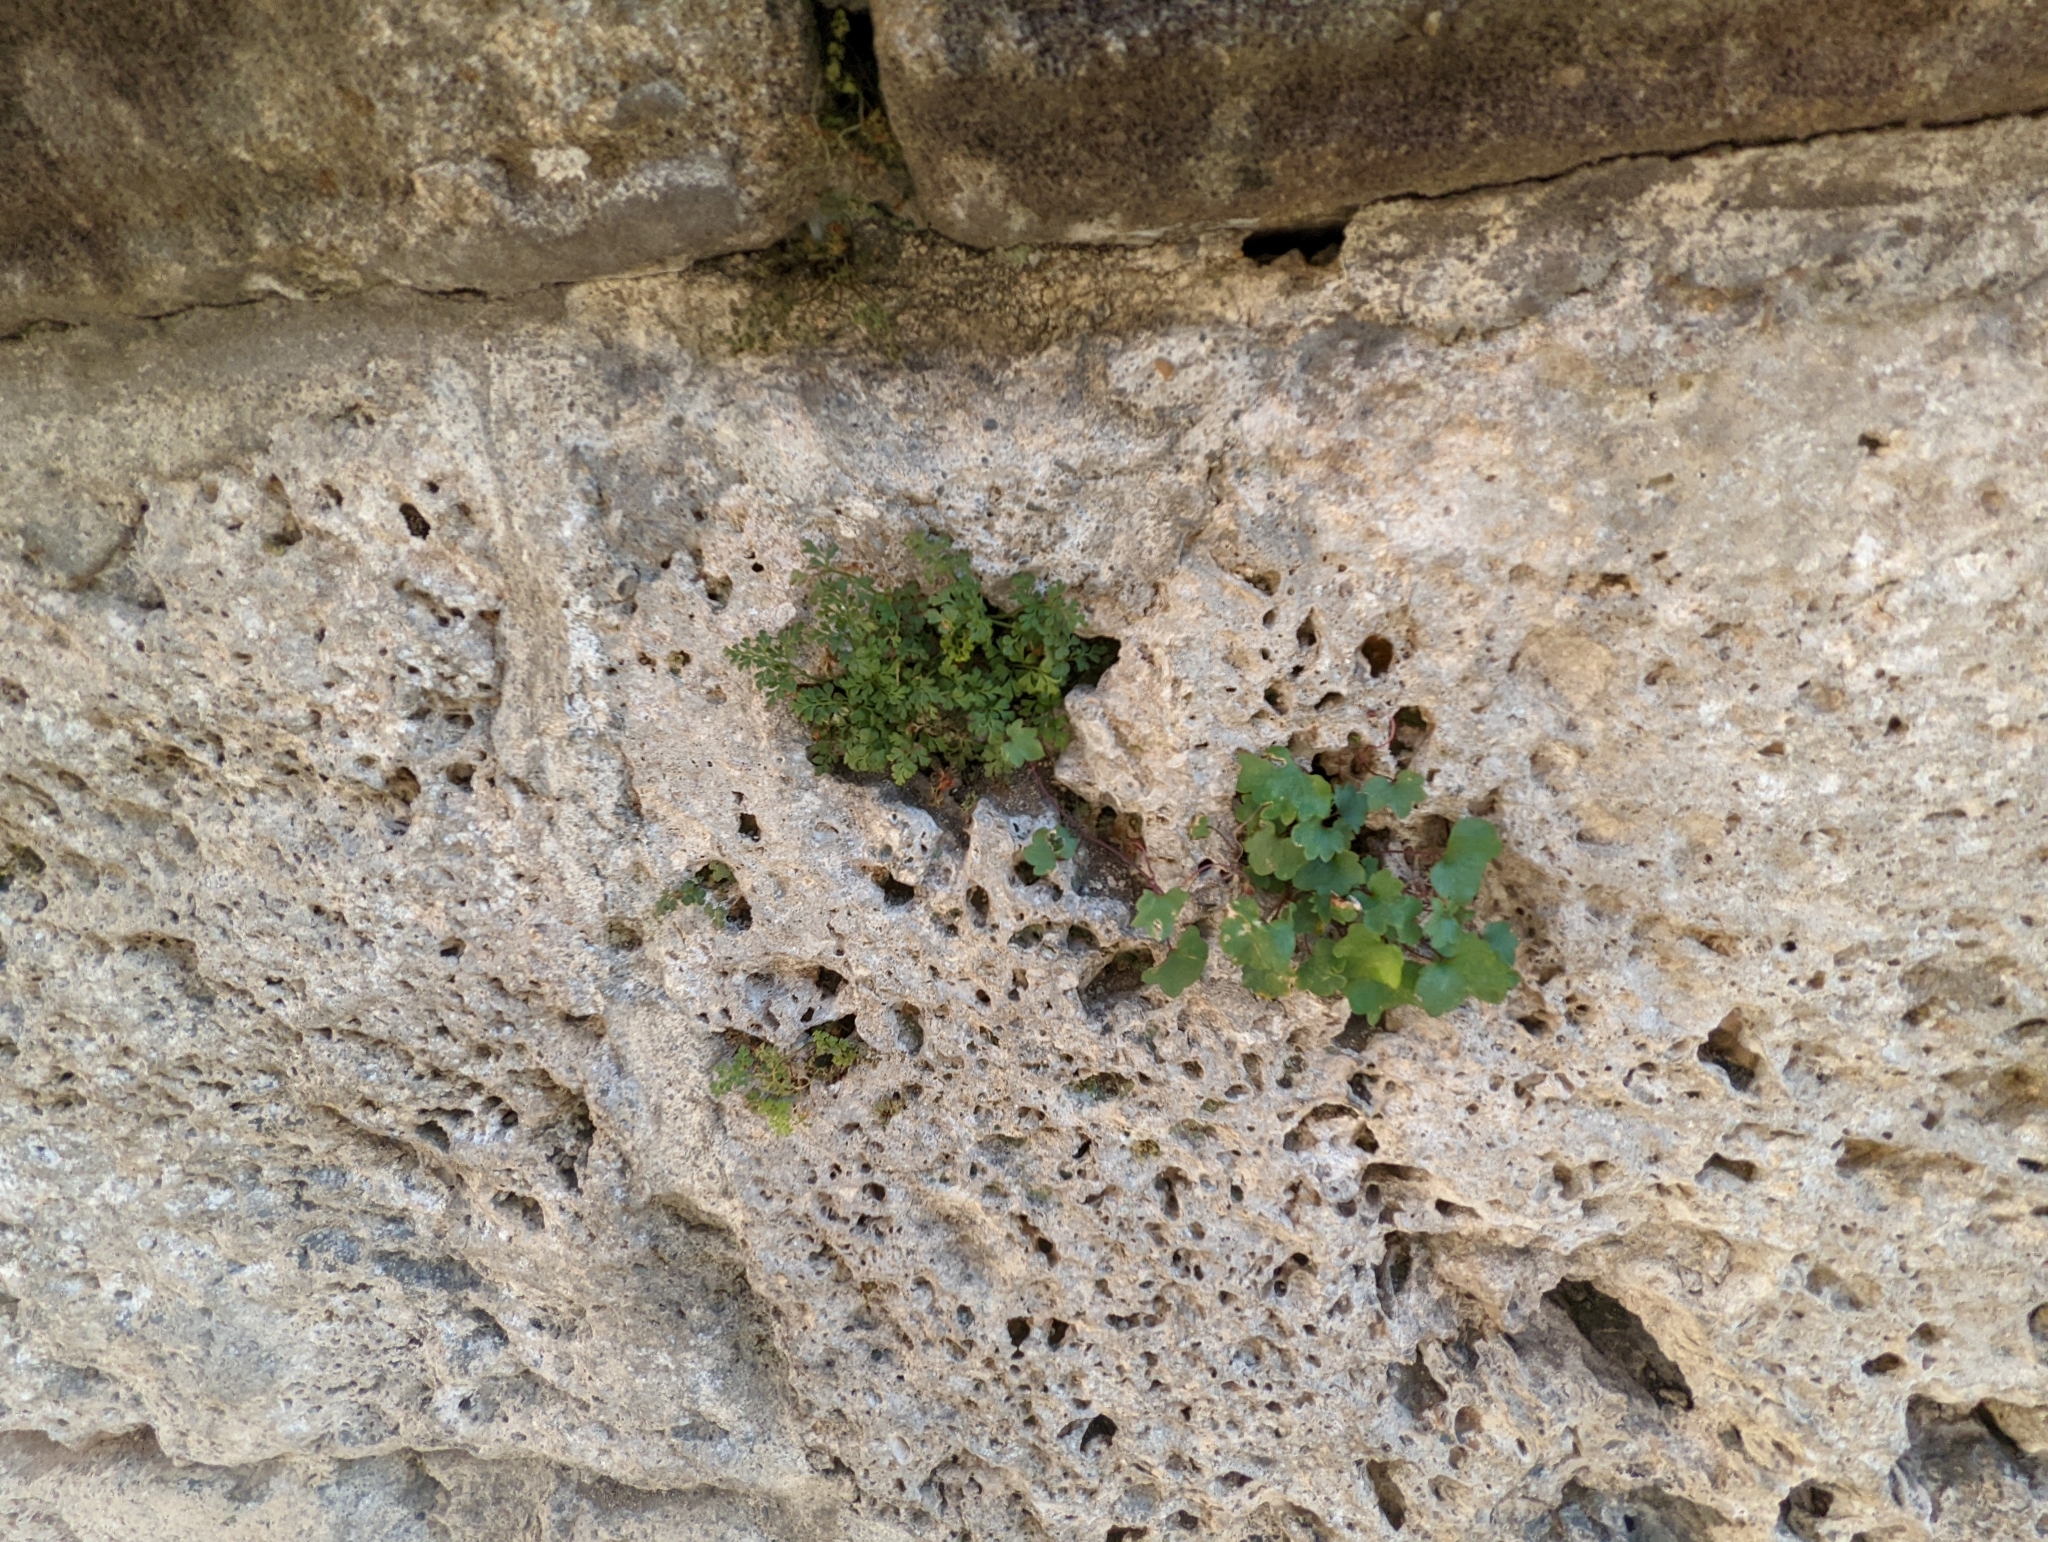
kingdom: Plantae
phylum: Tracheophyta
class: Polypodiopsida
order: Polypodiales
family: Aspleniaceae
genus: Asplenium
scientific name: Asplenium ruta-muraria
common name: Wall-rue
